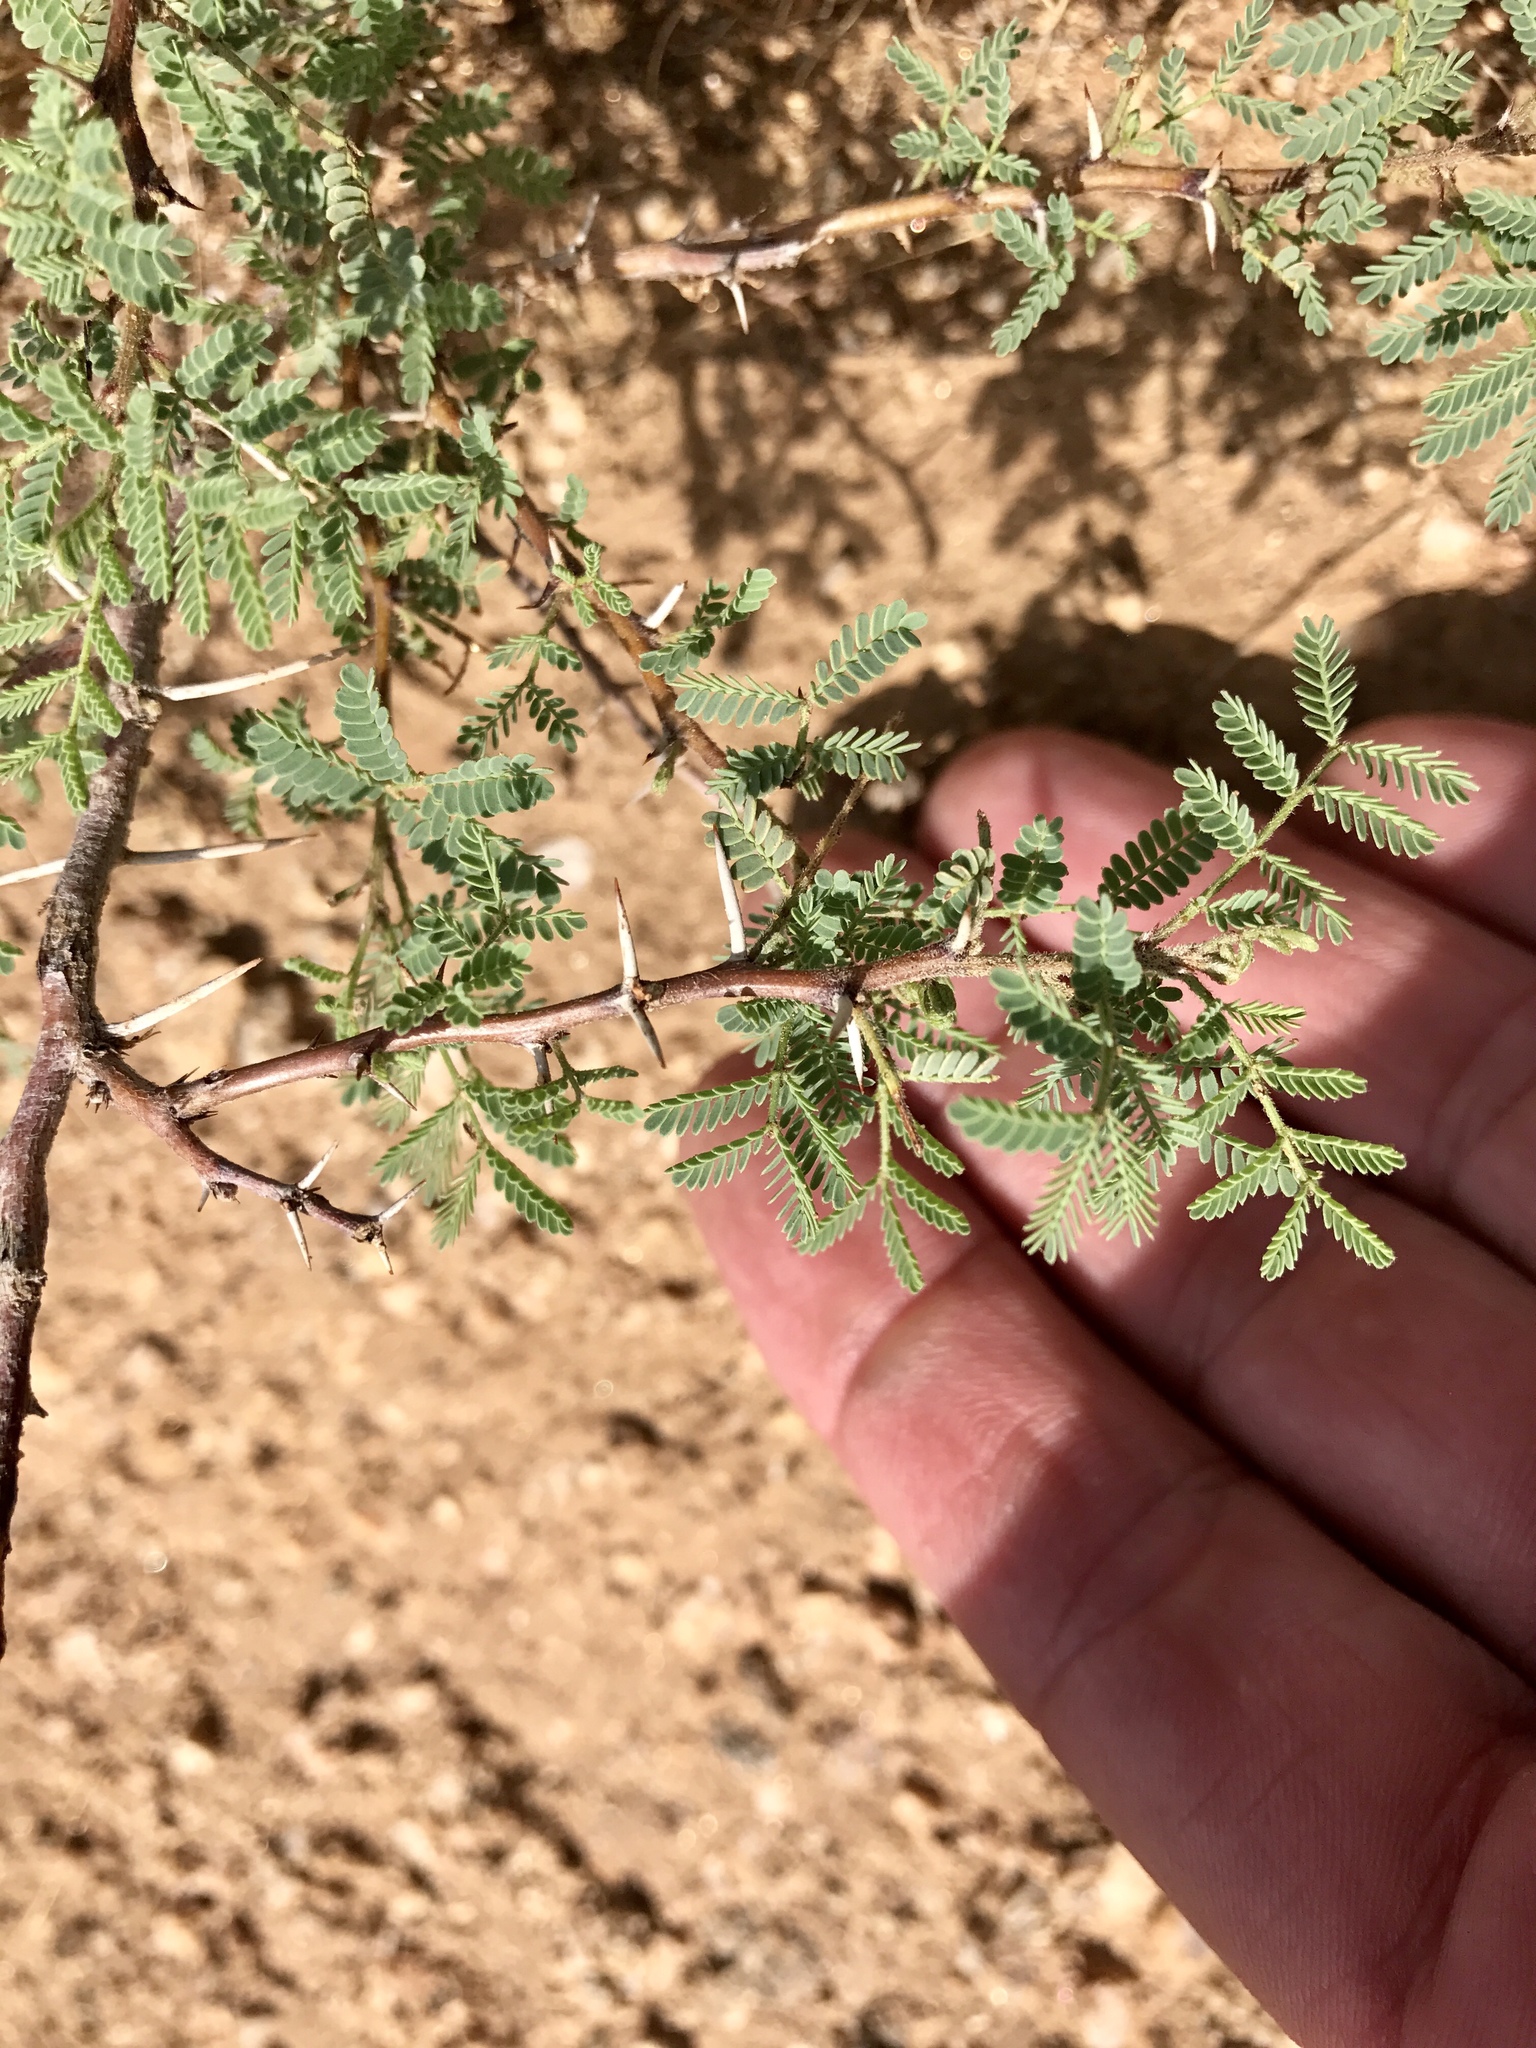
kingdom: Plantae
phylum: Tracheophyta
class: Magnoliopsida
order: Fabales
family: Fabaceae
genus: Vachellia
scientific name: Vachellia constricta
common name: Mescat acacia
